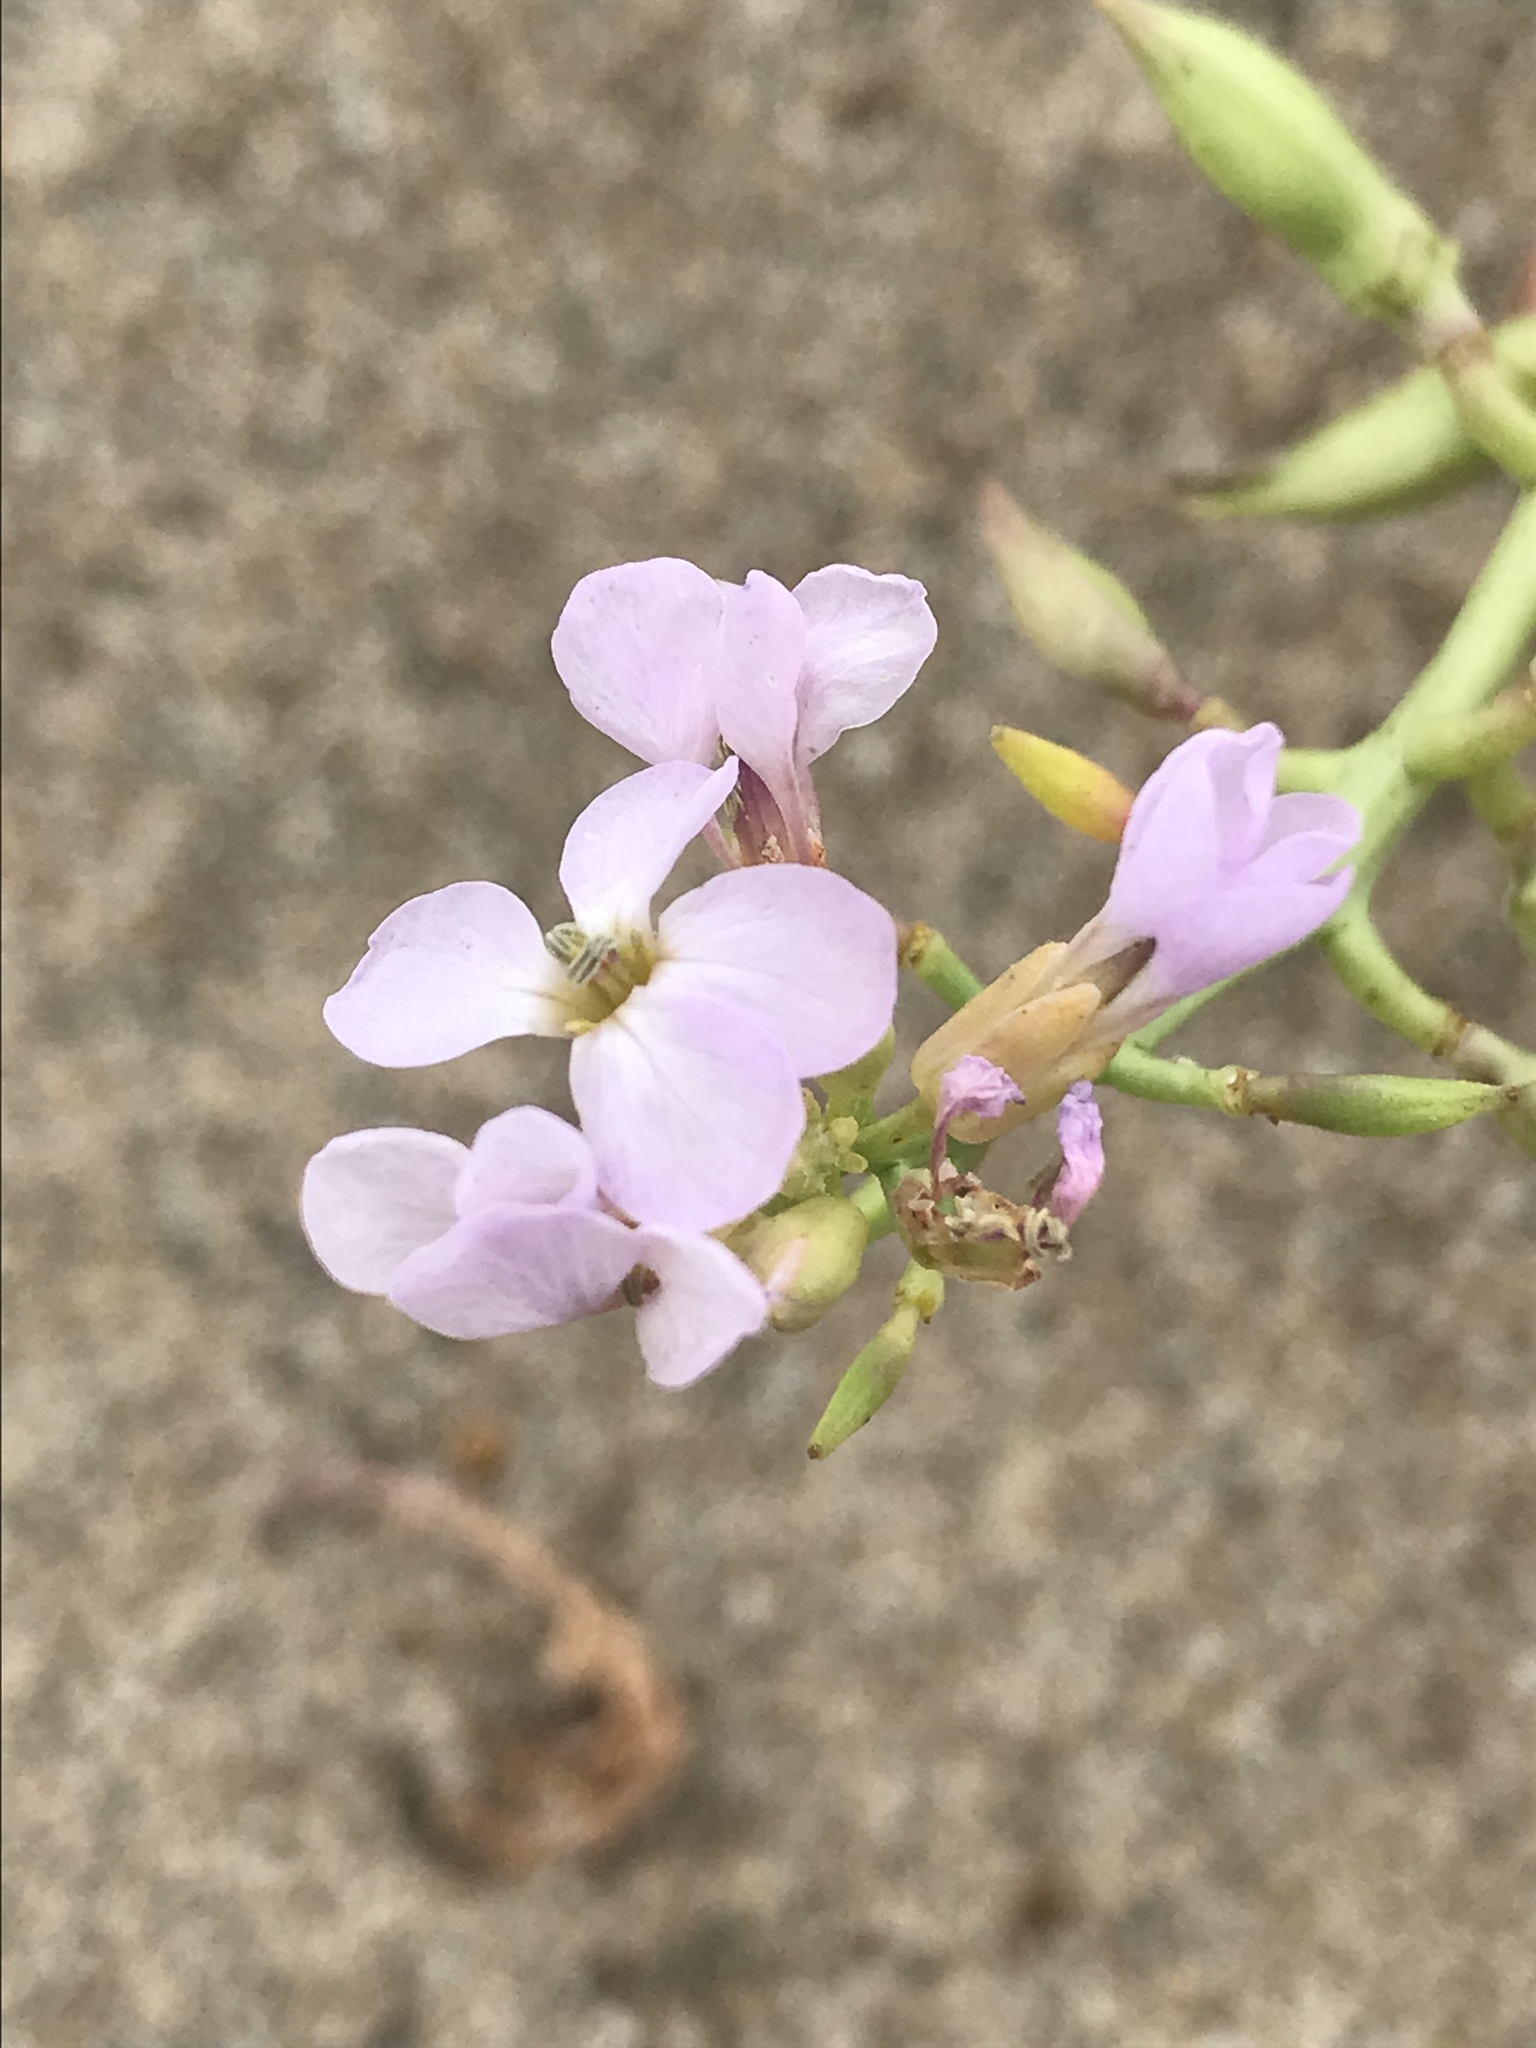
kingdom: Plantae
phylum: Tracheophyta
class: Magnoliopsida
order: Brassicales
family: Brassicaceae
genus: Cakile
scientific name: Cakile maritima
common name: Sea rocket
